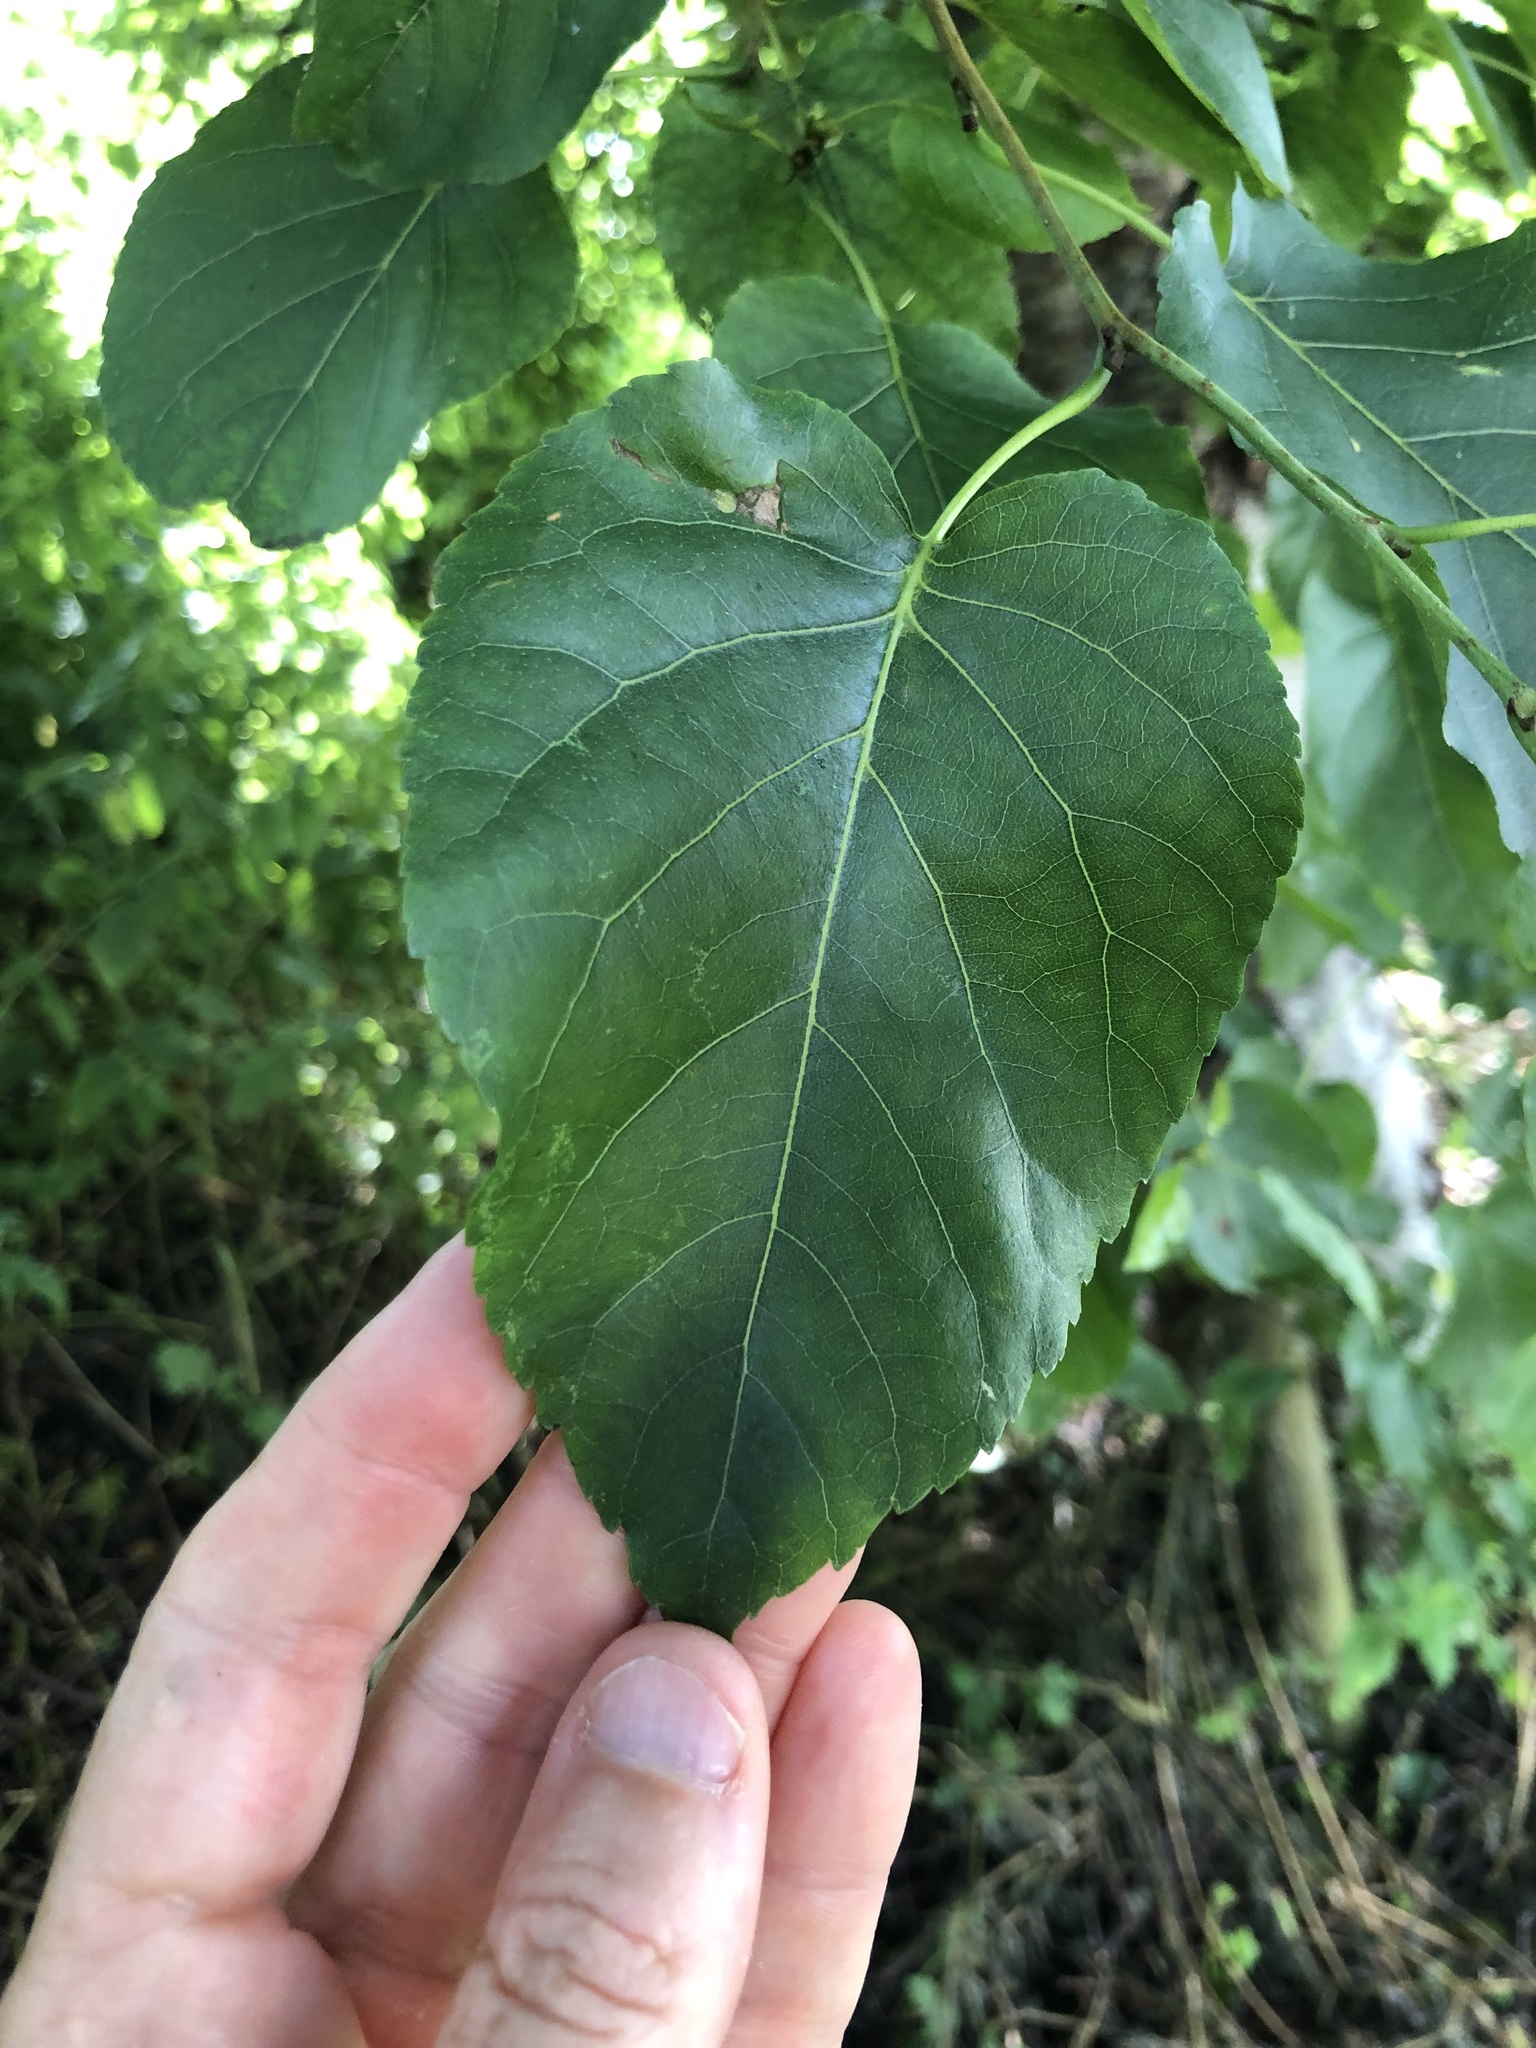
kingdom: Plantae
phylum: Tracheophyta
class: Magnoliopsida
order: Fagales
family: Betulaceae
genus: Alnus
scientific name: Alnus cordata
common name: Italian alder
